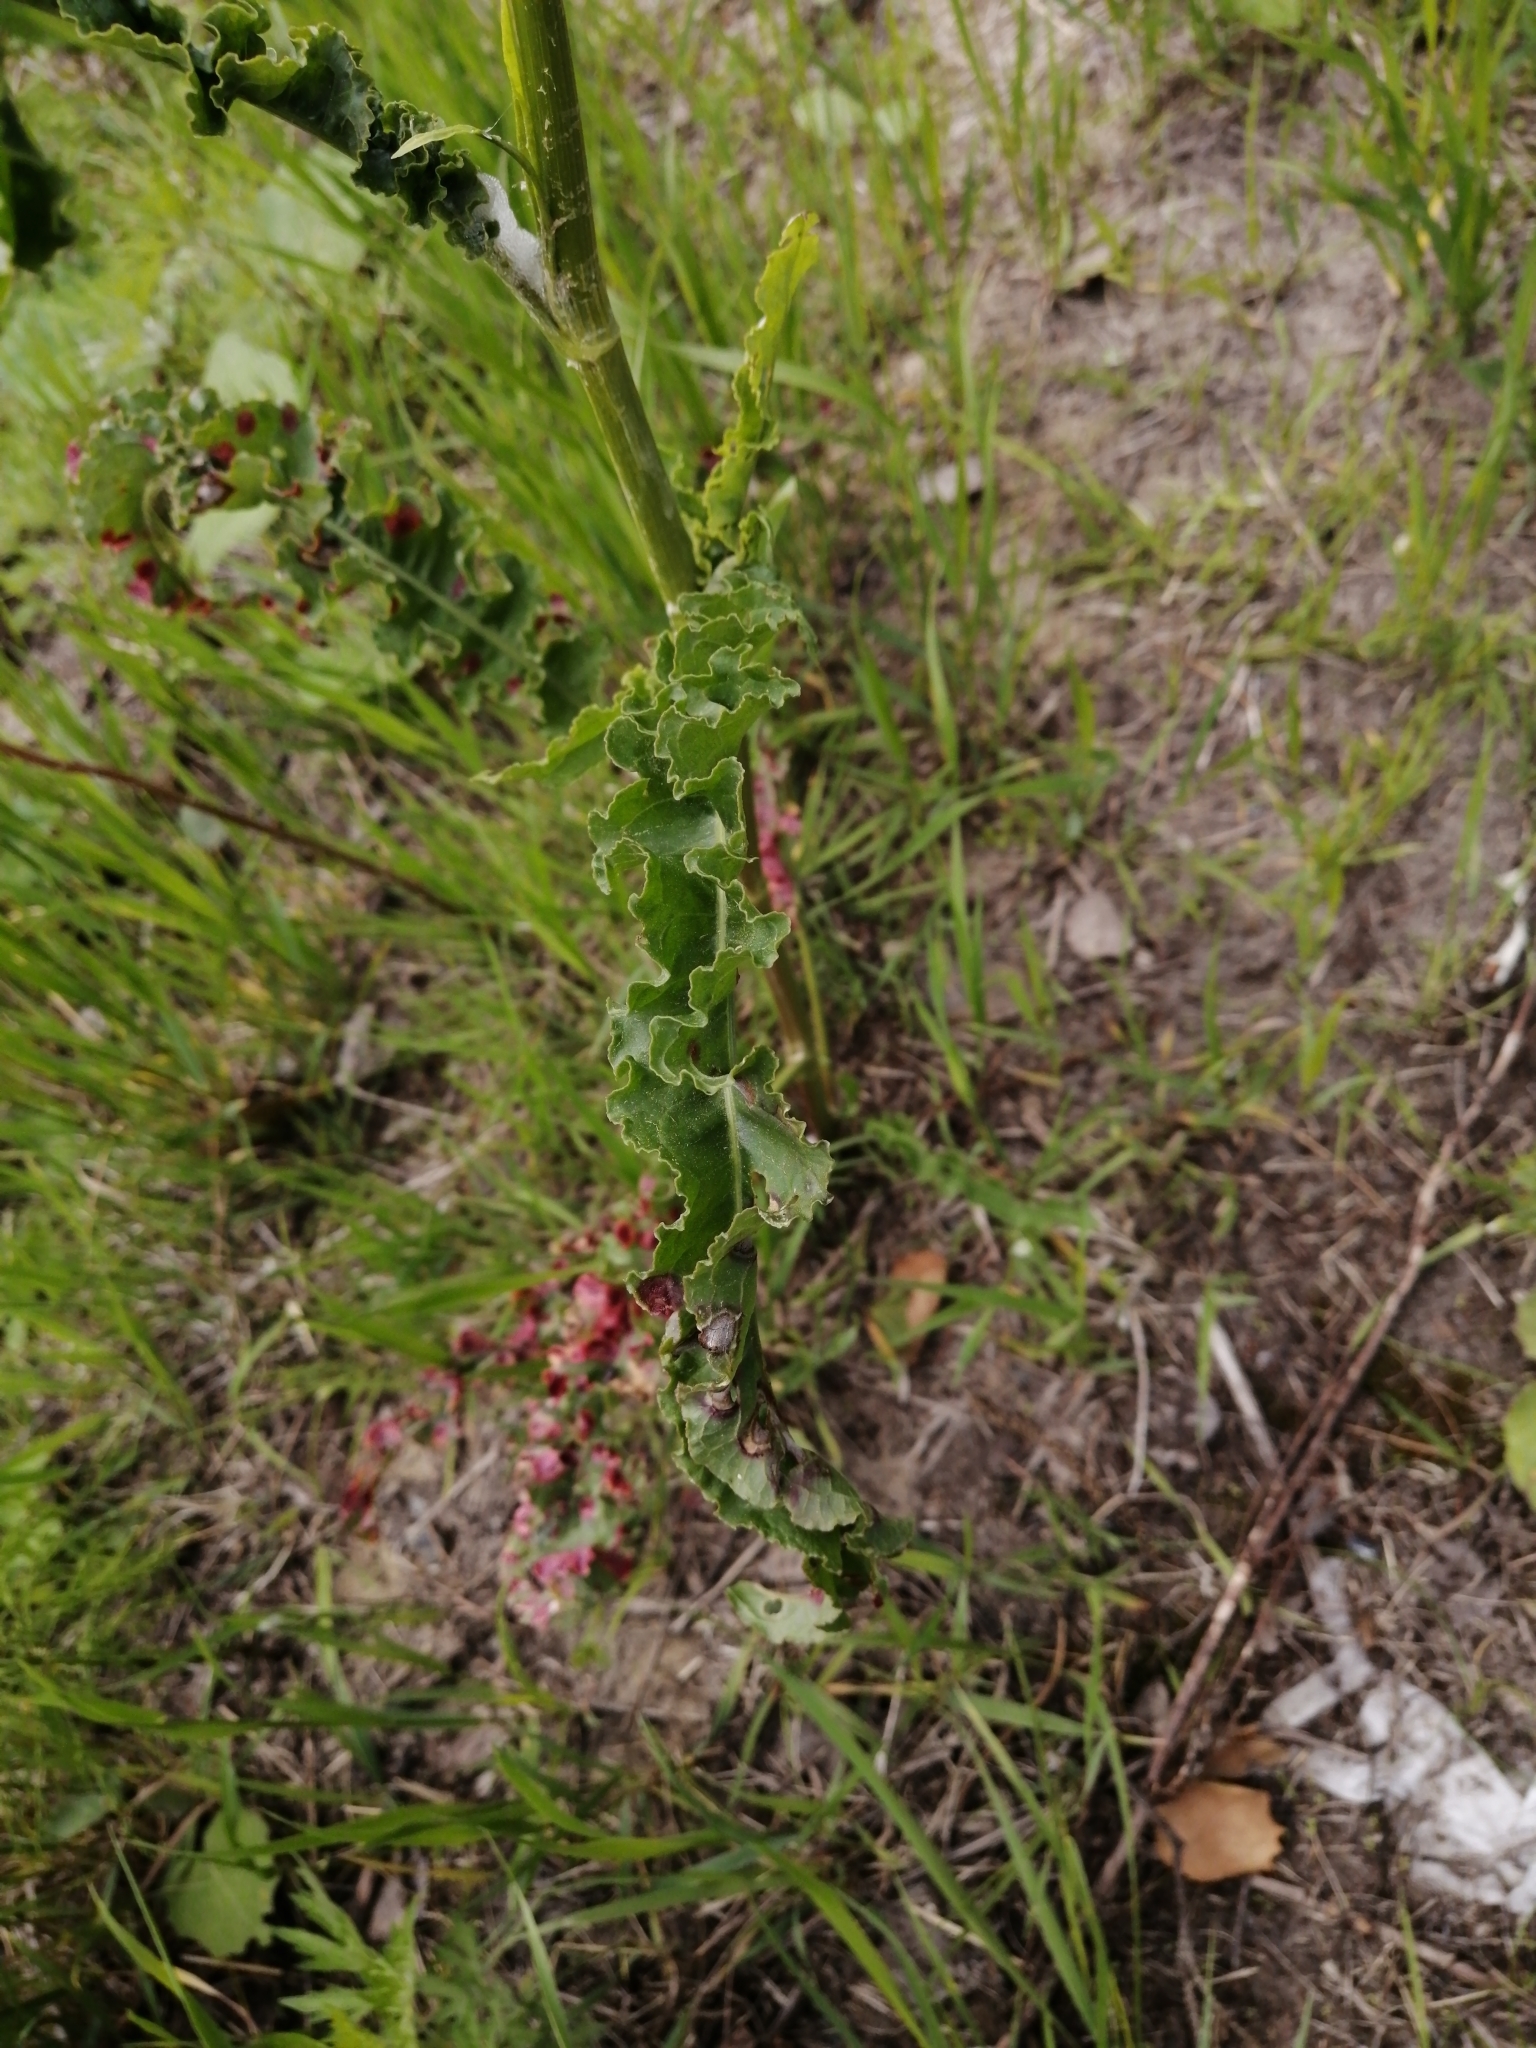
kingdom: Plantae
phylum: Tracheophyta
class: Magnoliopsida
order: Caryophyllales
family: Polygonaceae
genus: Rumex
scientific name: Rumex pseudonatronatus
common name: Field dock
